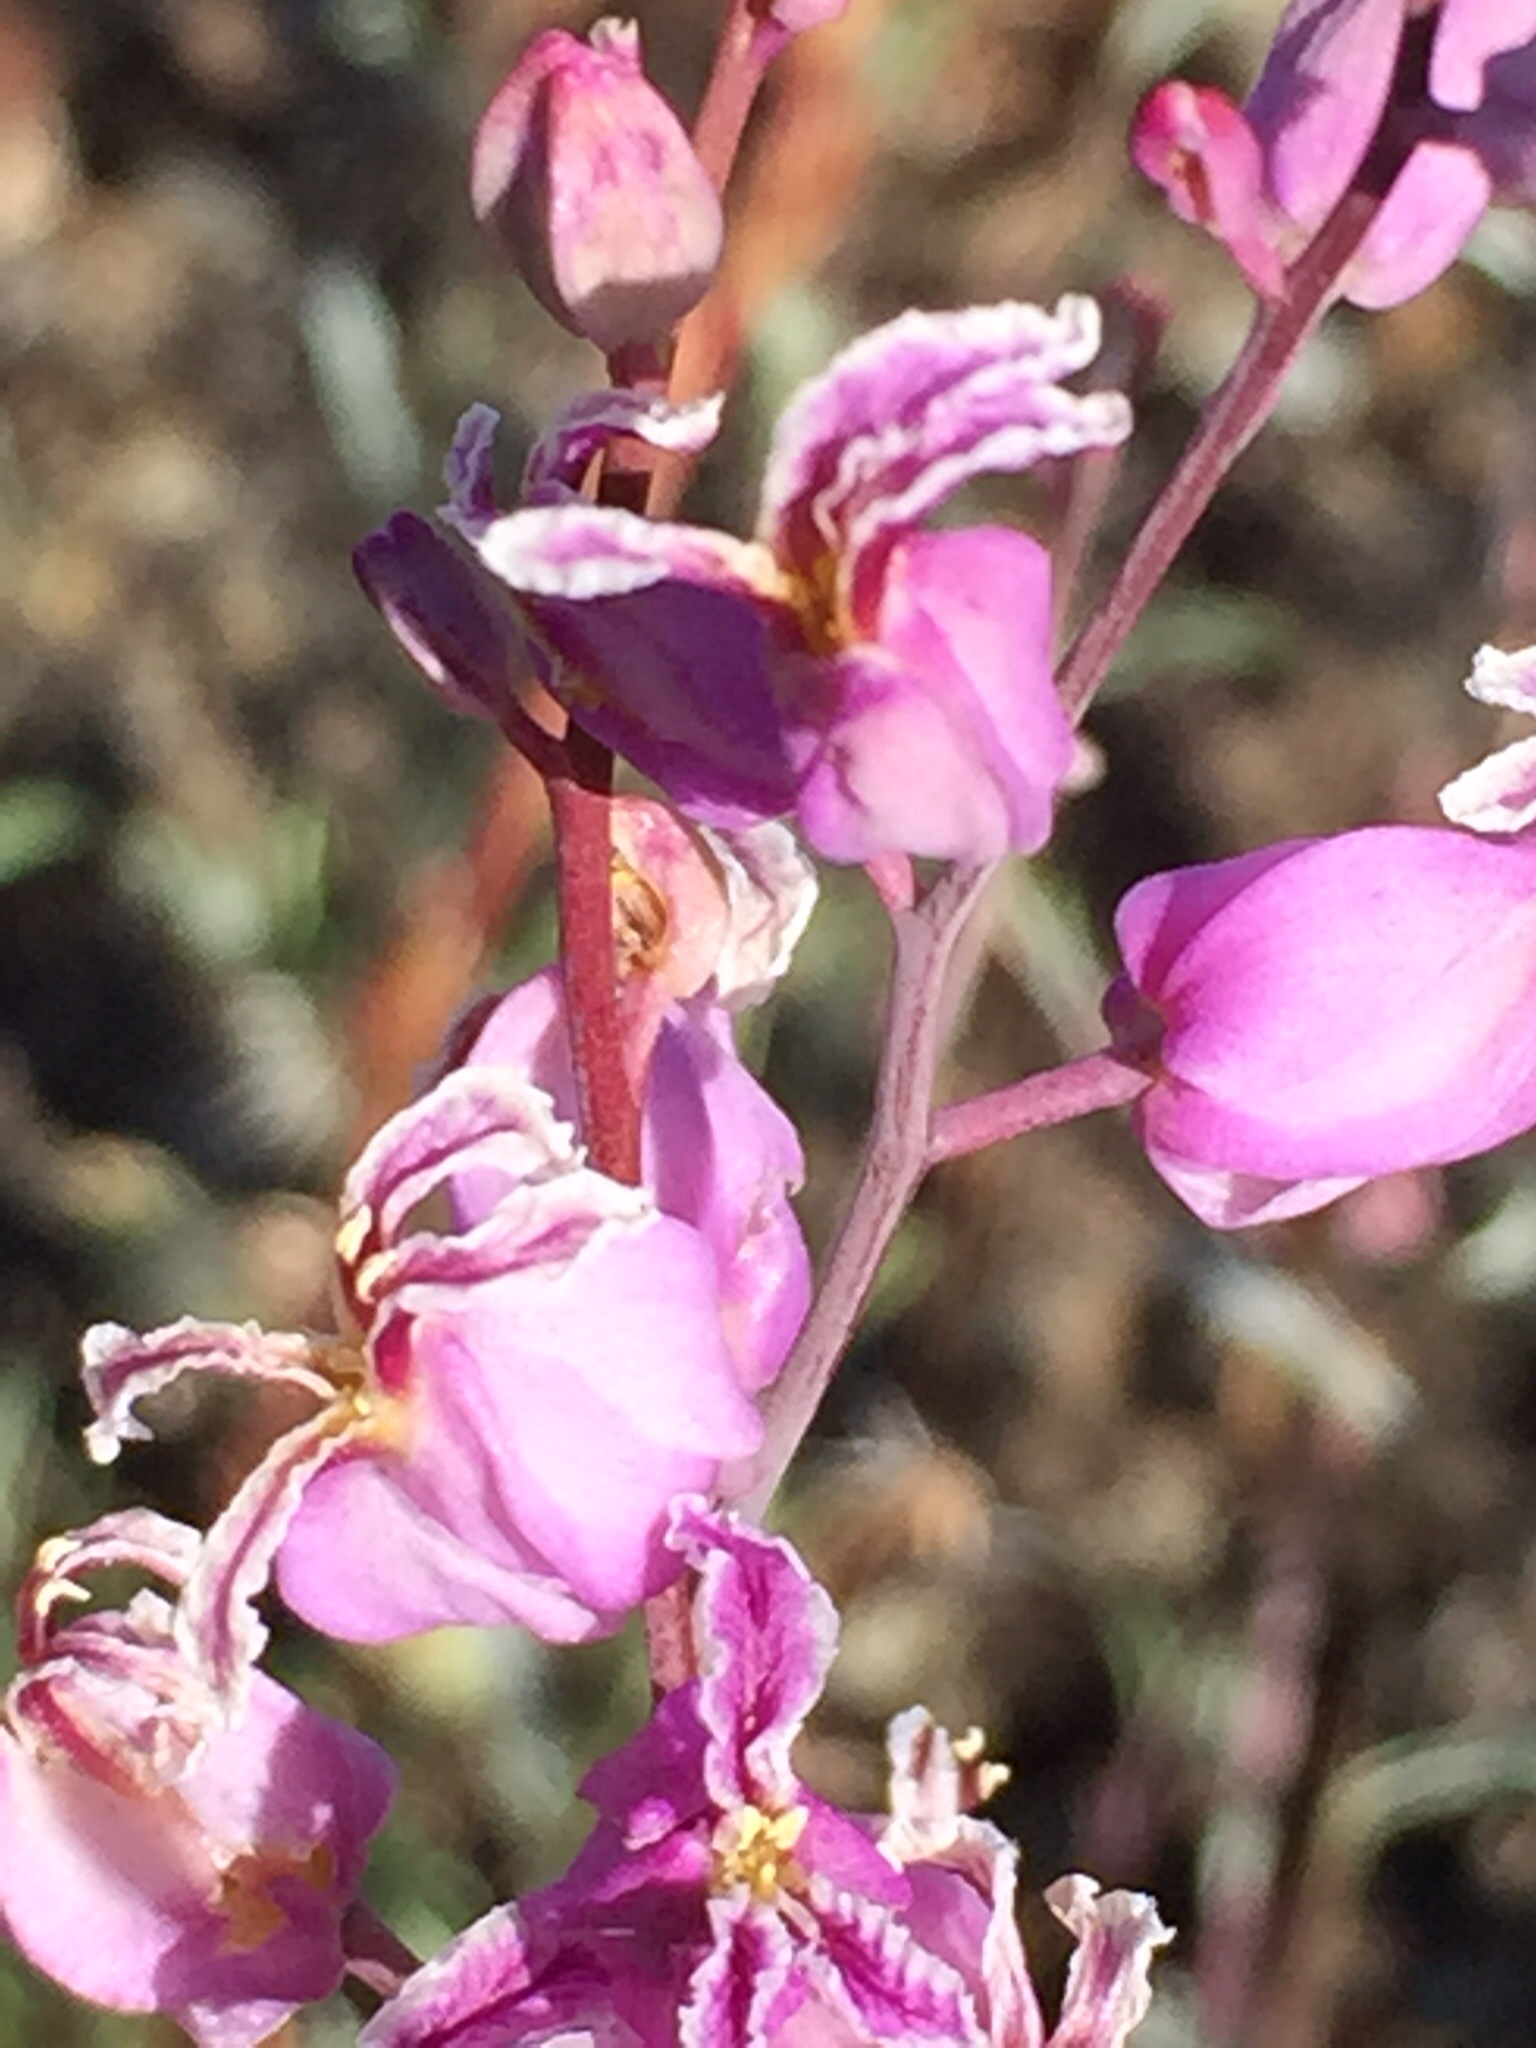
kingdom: Plantae
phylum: Tracheophyta
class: Magnoliopsida
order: Brassicales
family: Brassicaceae
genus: Streptanthus
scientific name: Streptanthus glandulosus
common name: Jewel-flower
